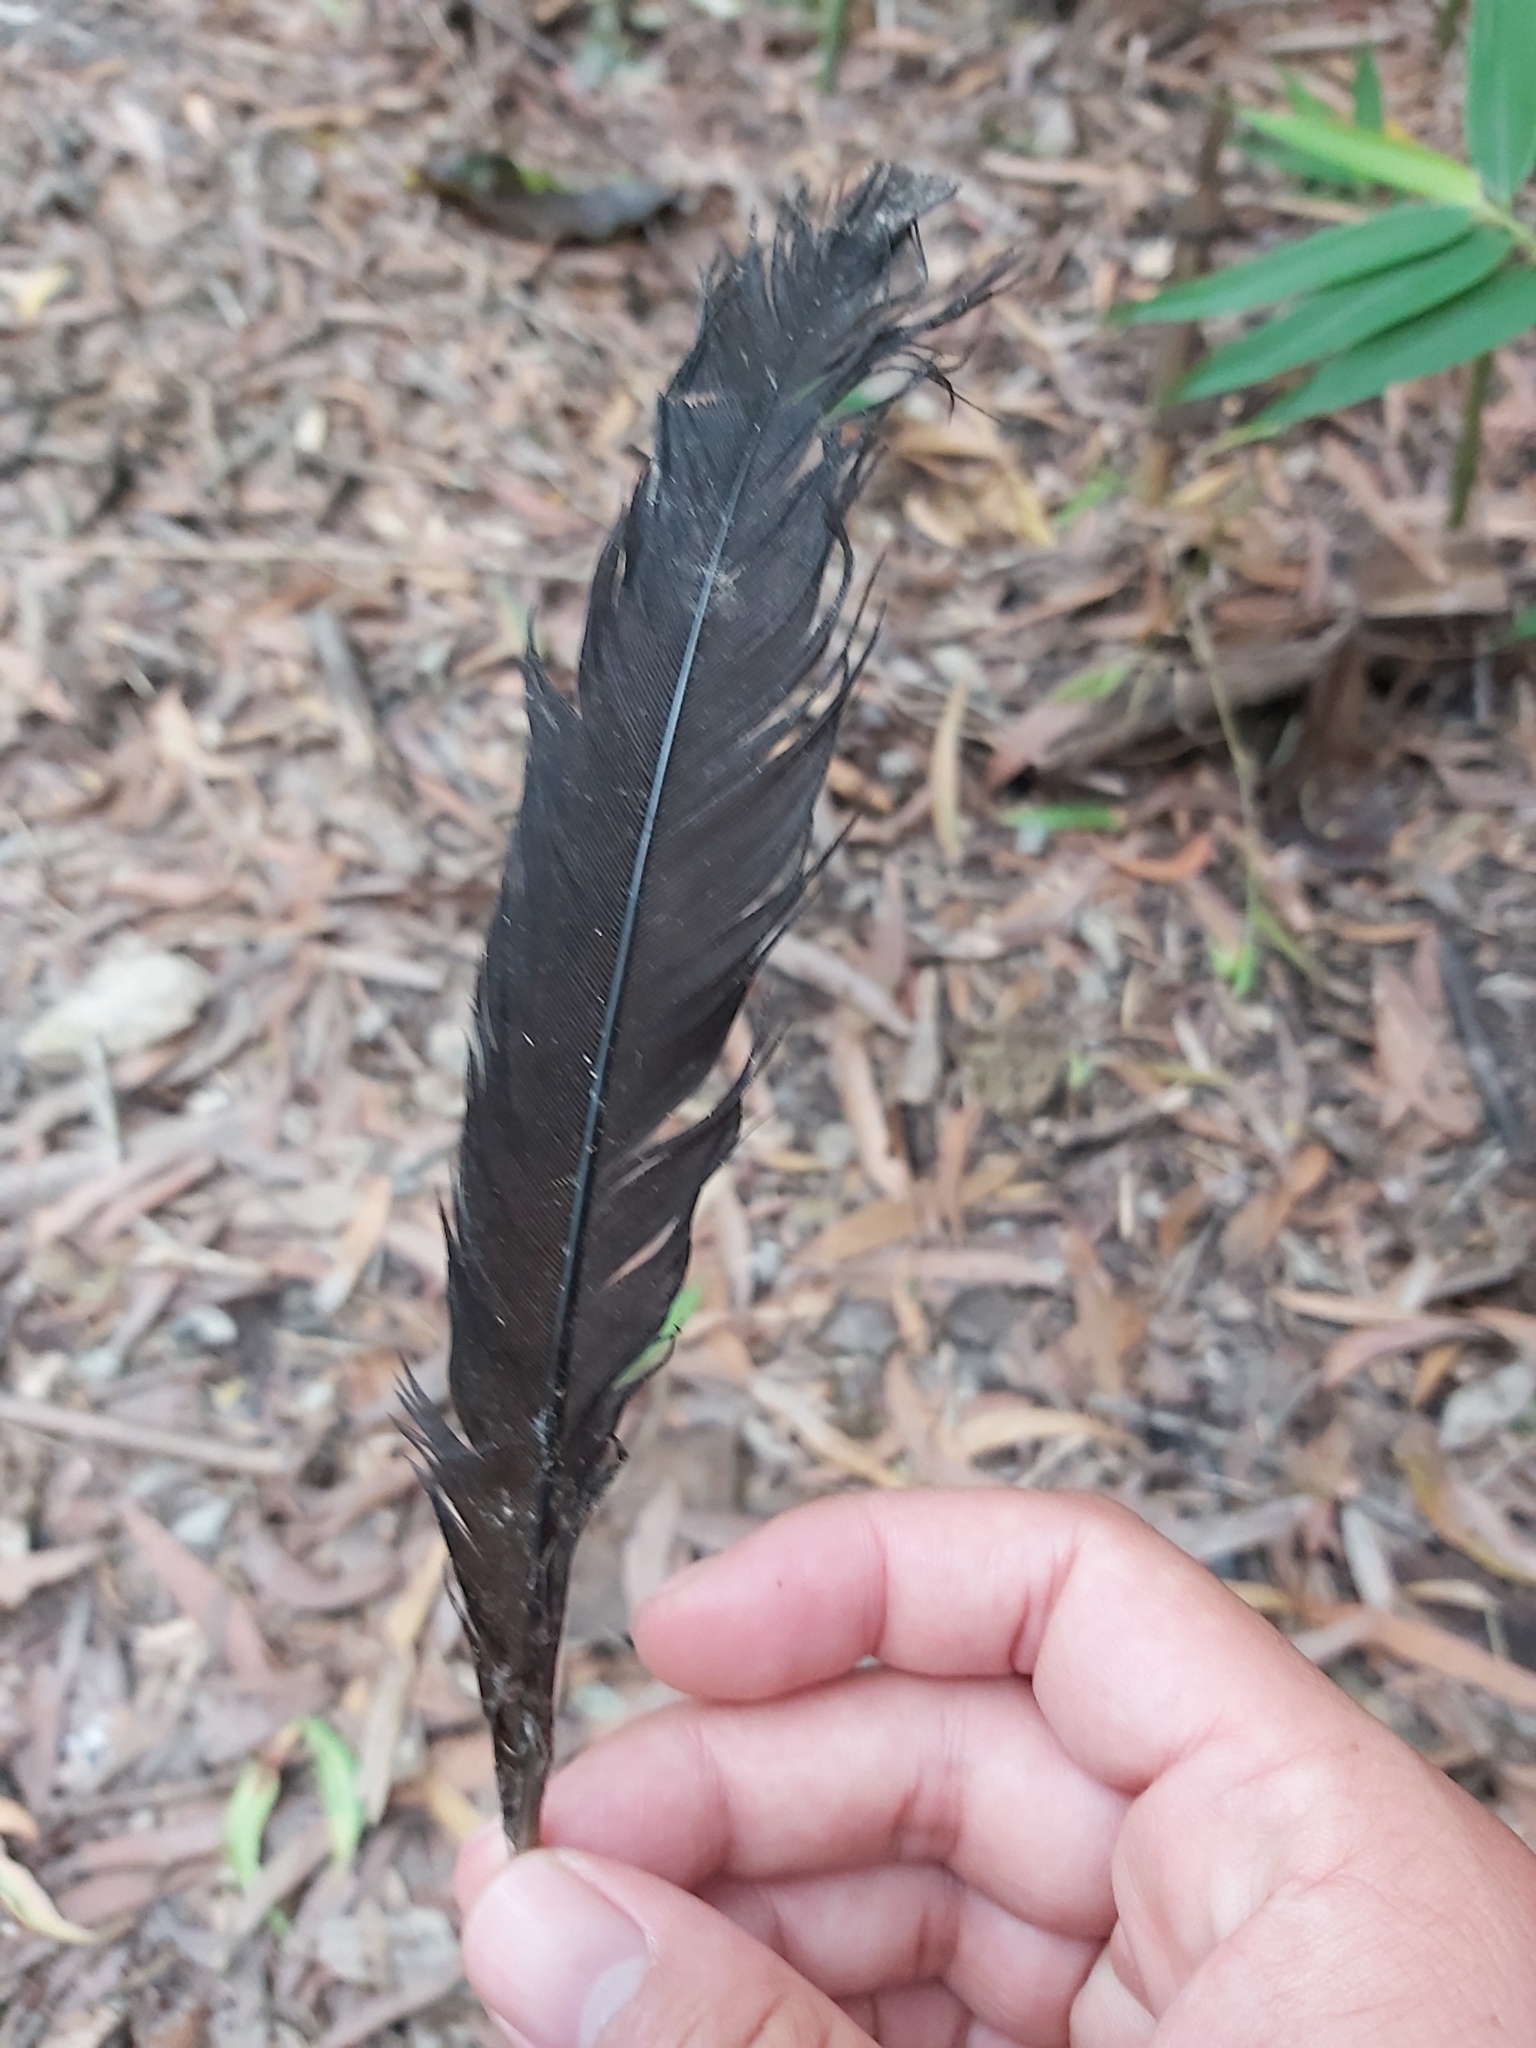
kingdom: Animalia
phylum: Chordata
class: Aves
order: Galliformes
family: Megapodiidae
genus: Alectura
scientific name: Alectura lathami
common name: Australian brushturkey
